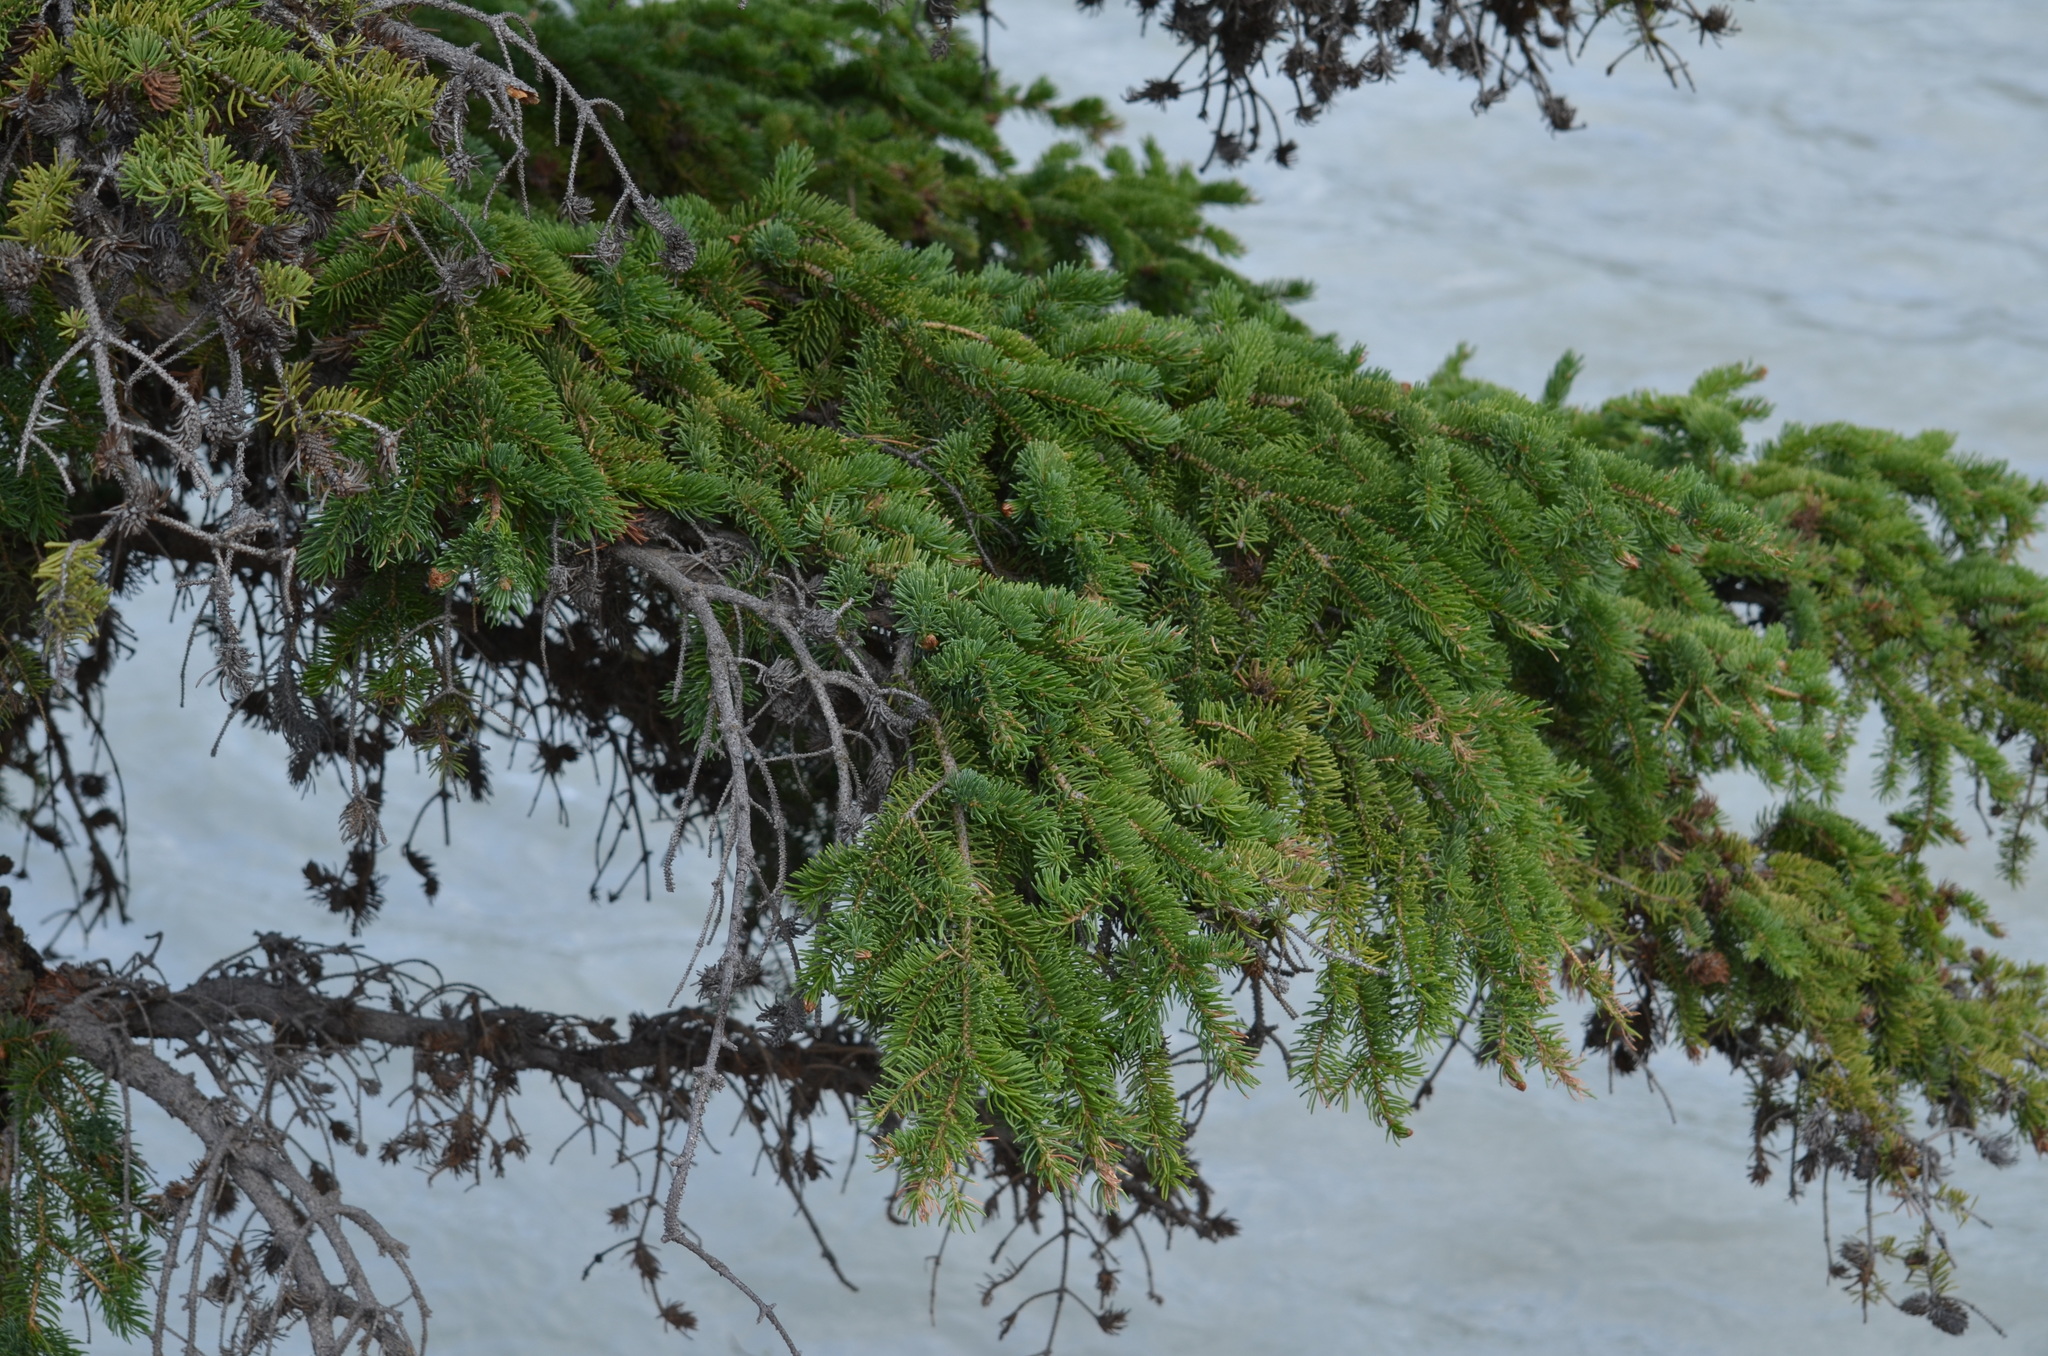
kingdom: Plantae
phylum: Tracheophyta
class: Pinopsida
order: Pinales
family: Pinaceae
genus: Picea
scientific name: Picea glauca
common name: White spruce
